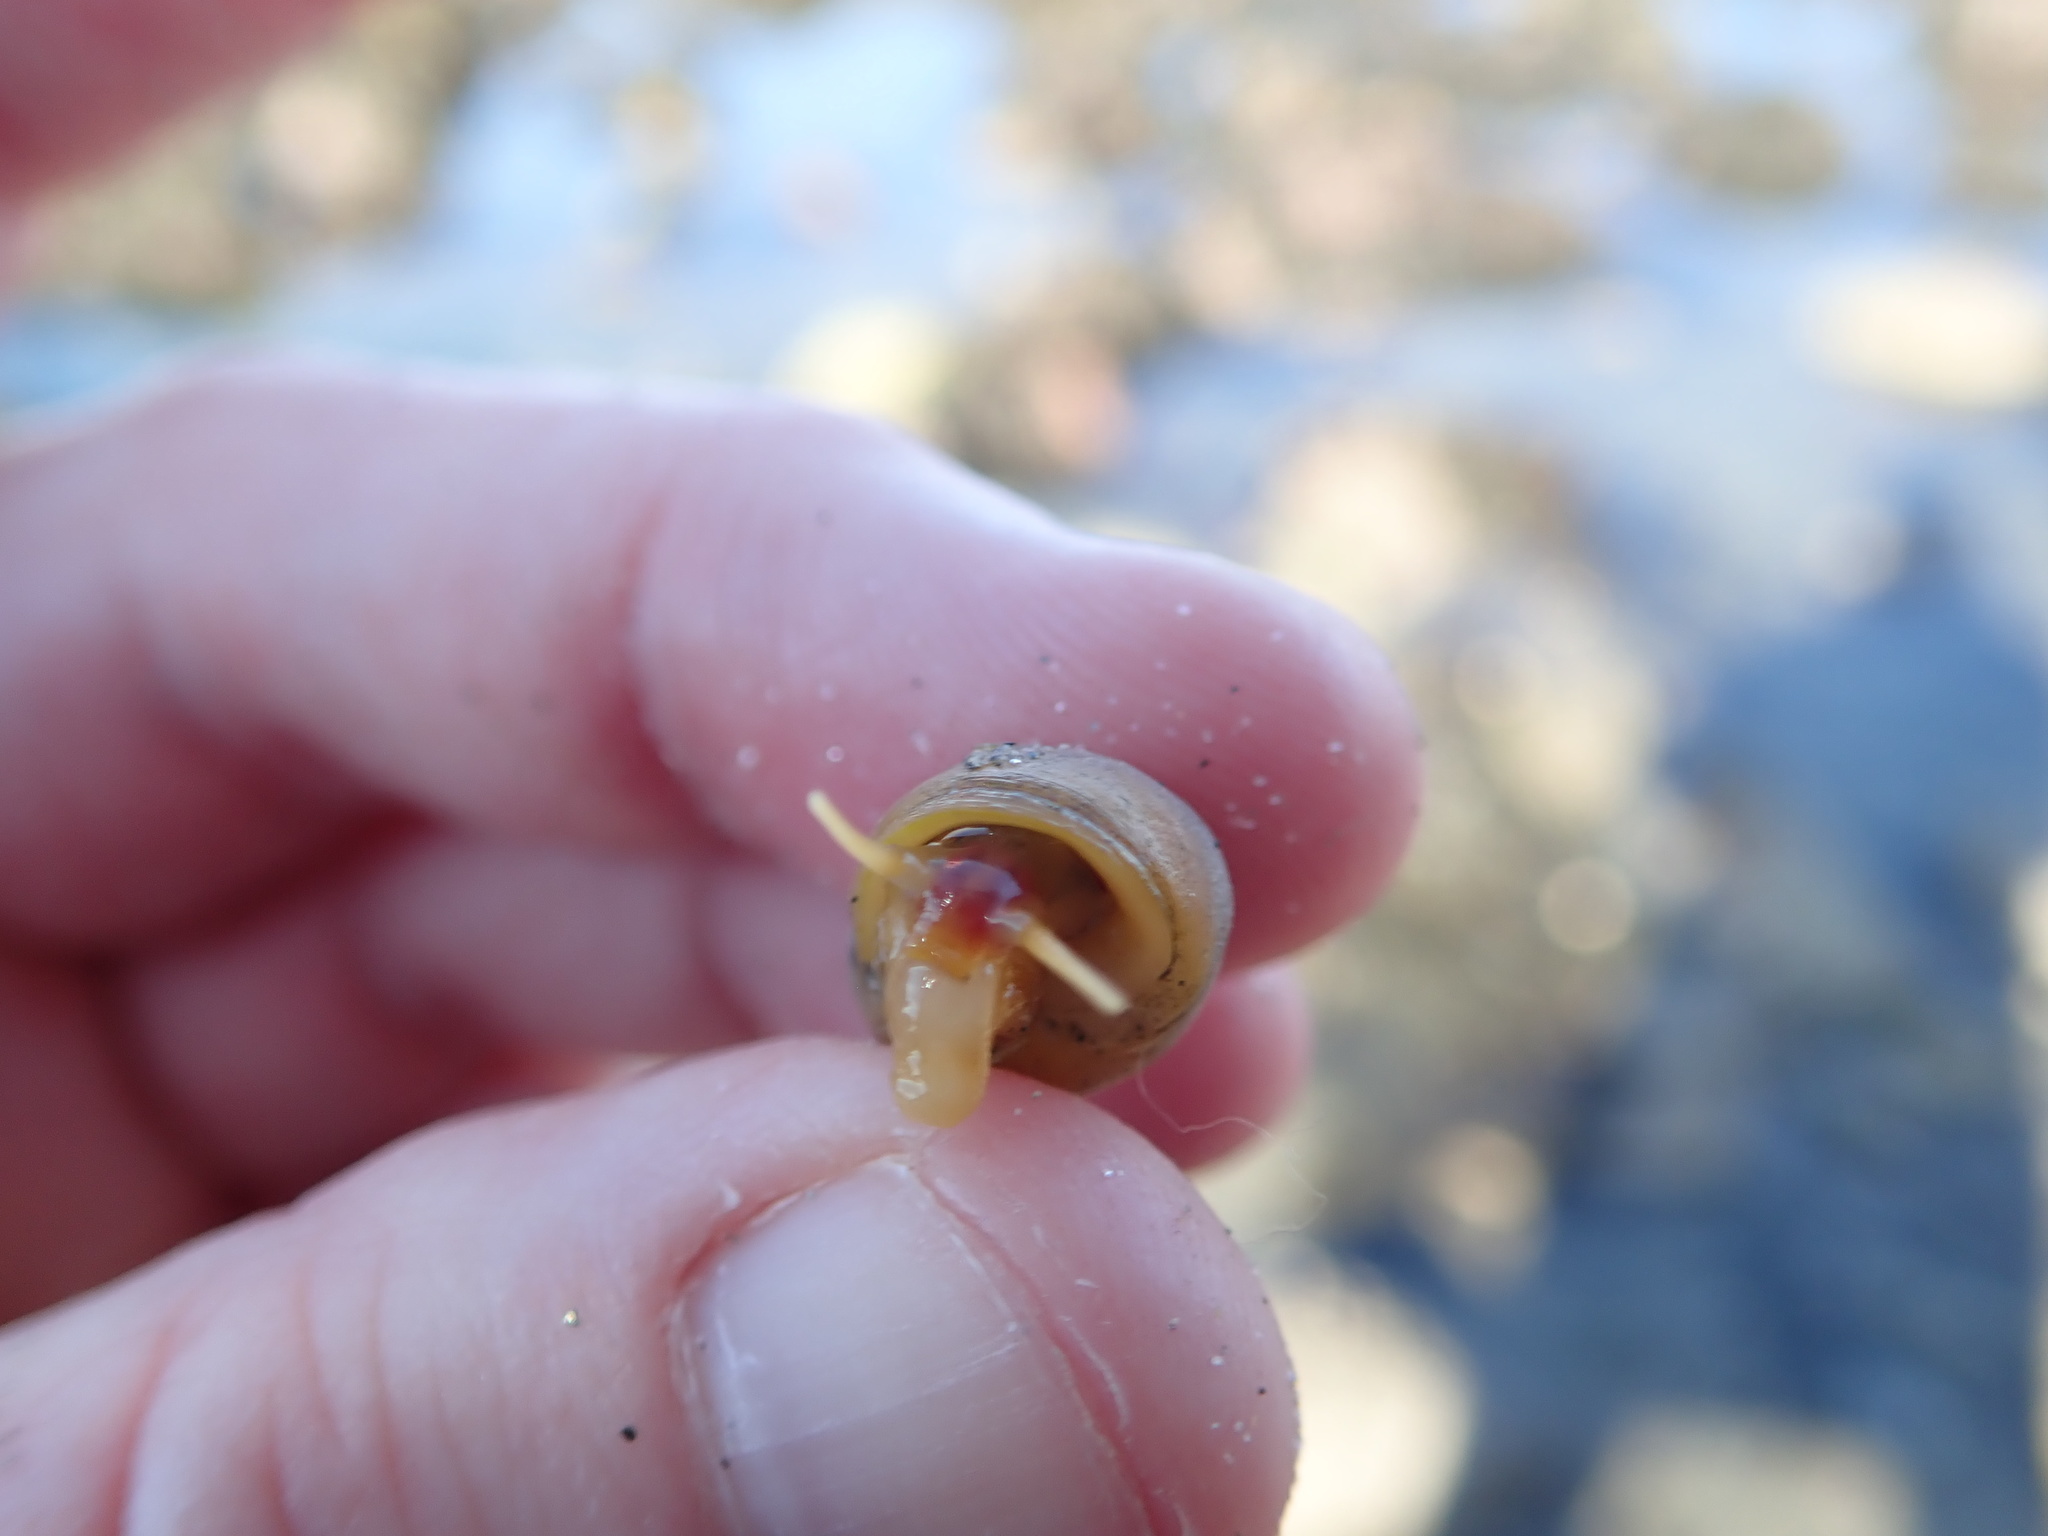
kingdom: Animalia
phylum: Mollusca
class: Gastropoda
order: Littorinimorpha
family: Littorinidae
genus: Littorina
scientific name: Littorina obtusata
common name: Flat periwinkle
